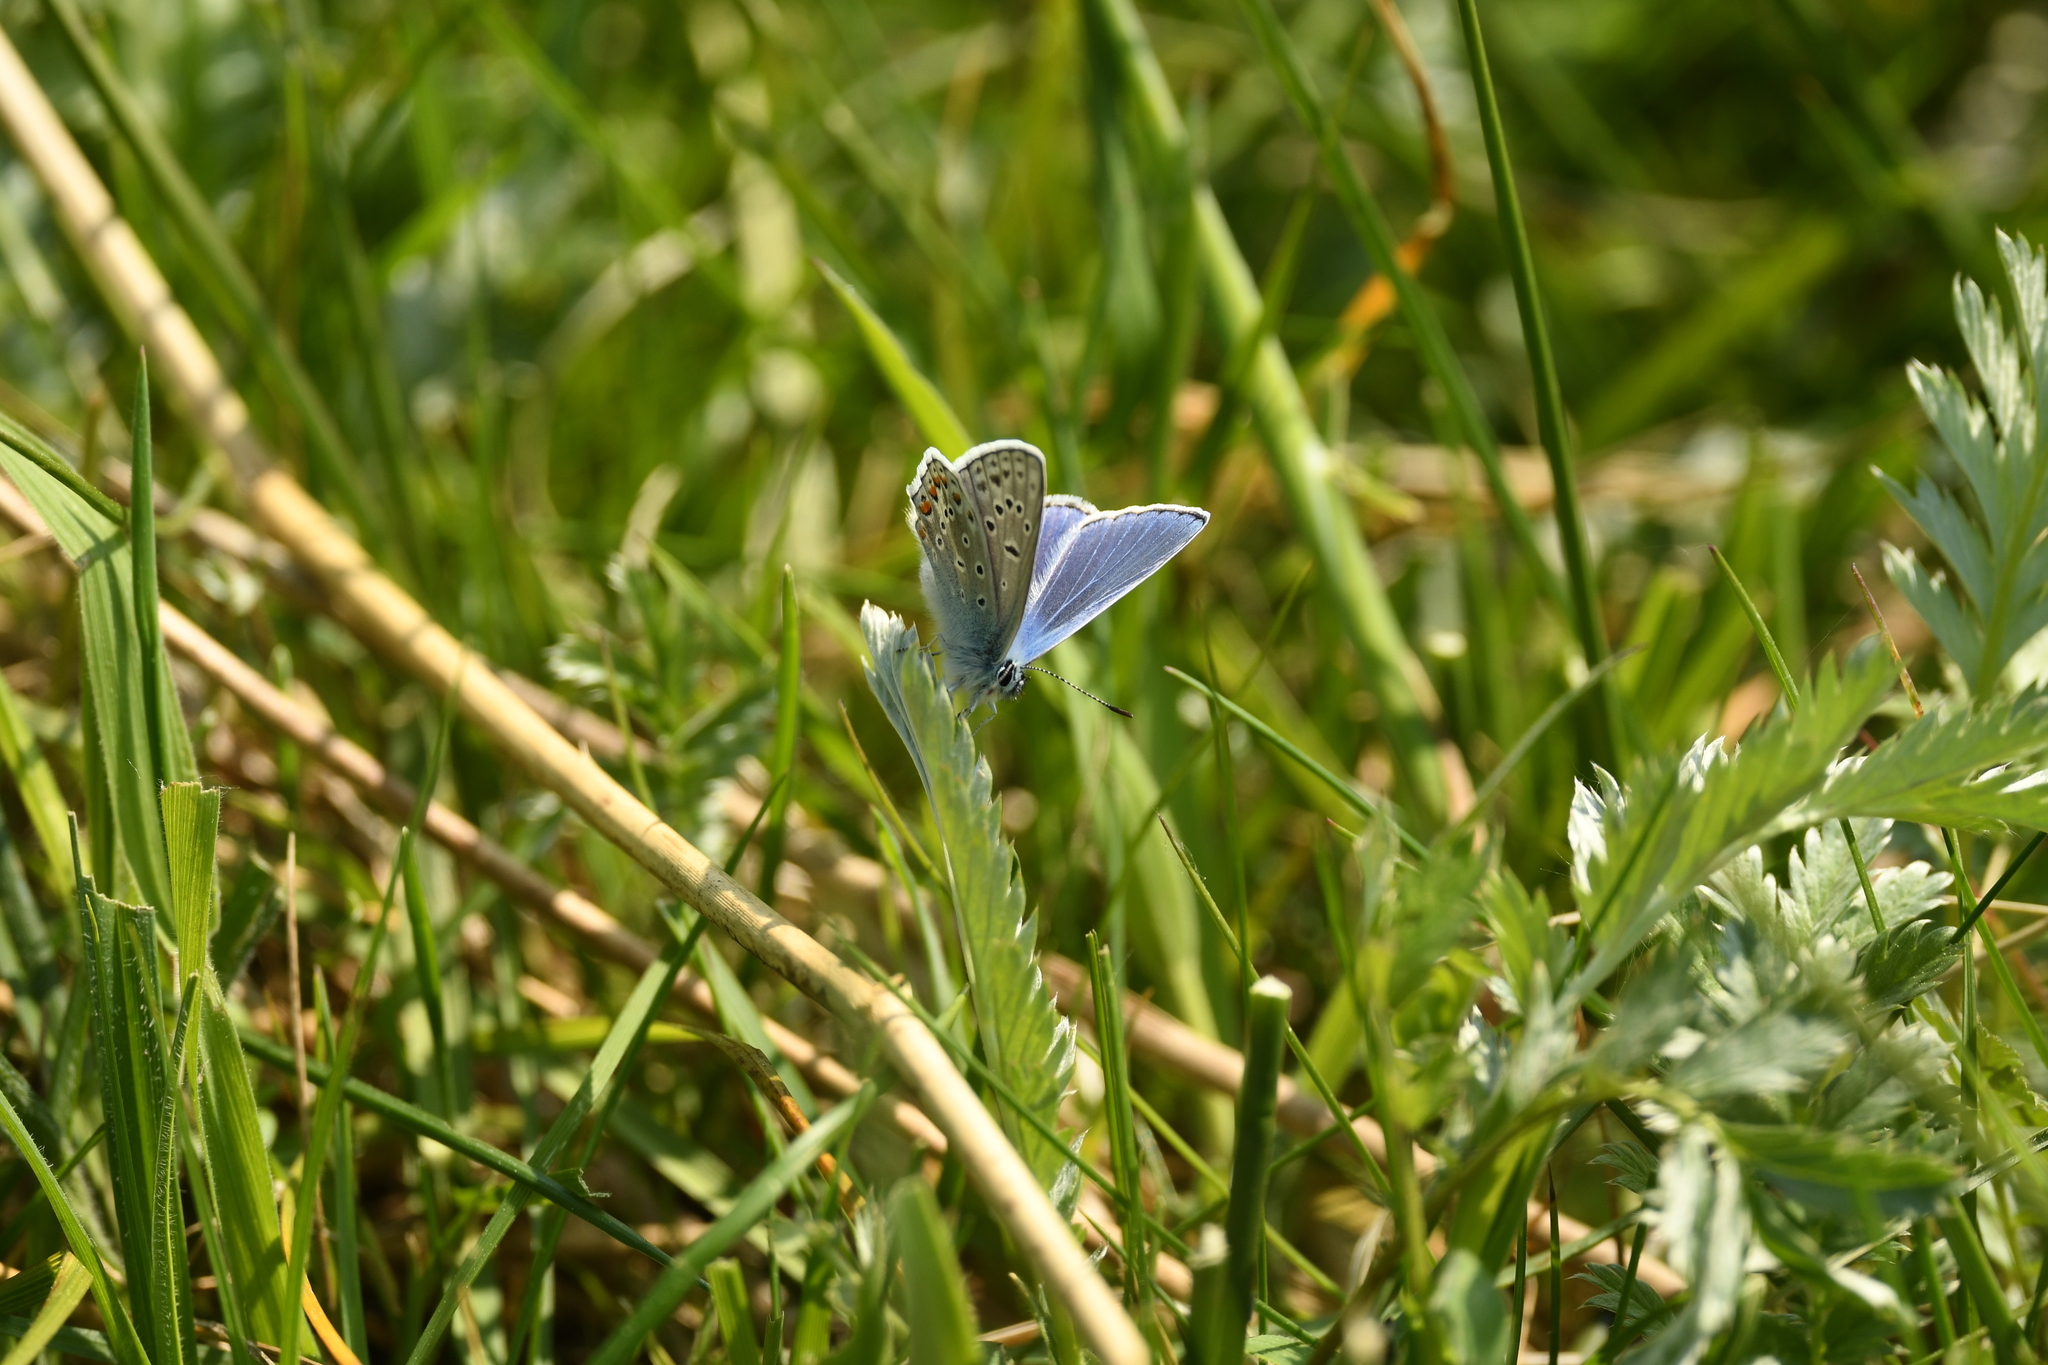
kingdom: Animalia
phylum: Arthropoda
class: Insecta
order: Lepidoptera
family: Lycaenidae
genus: Polyommatus
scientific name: Polyommatus icarus
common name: Common blue
